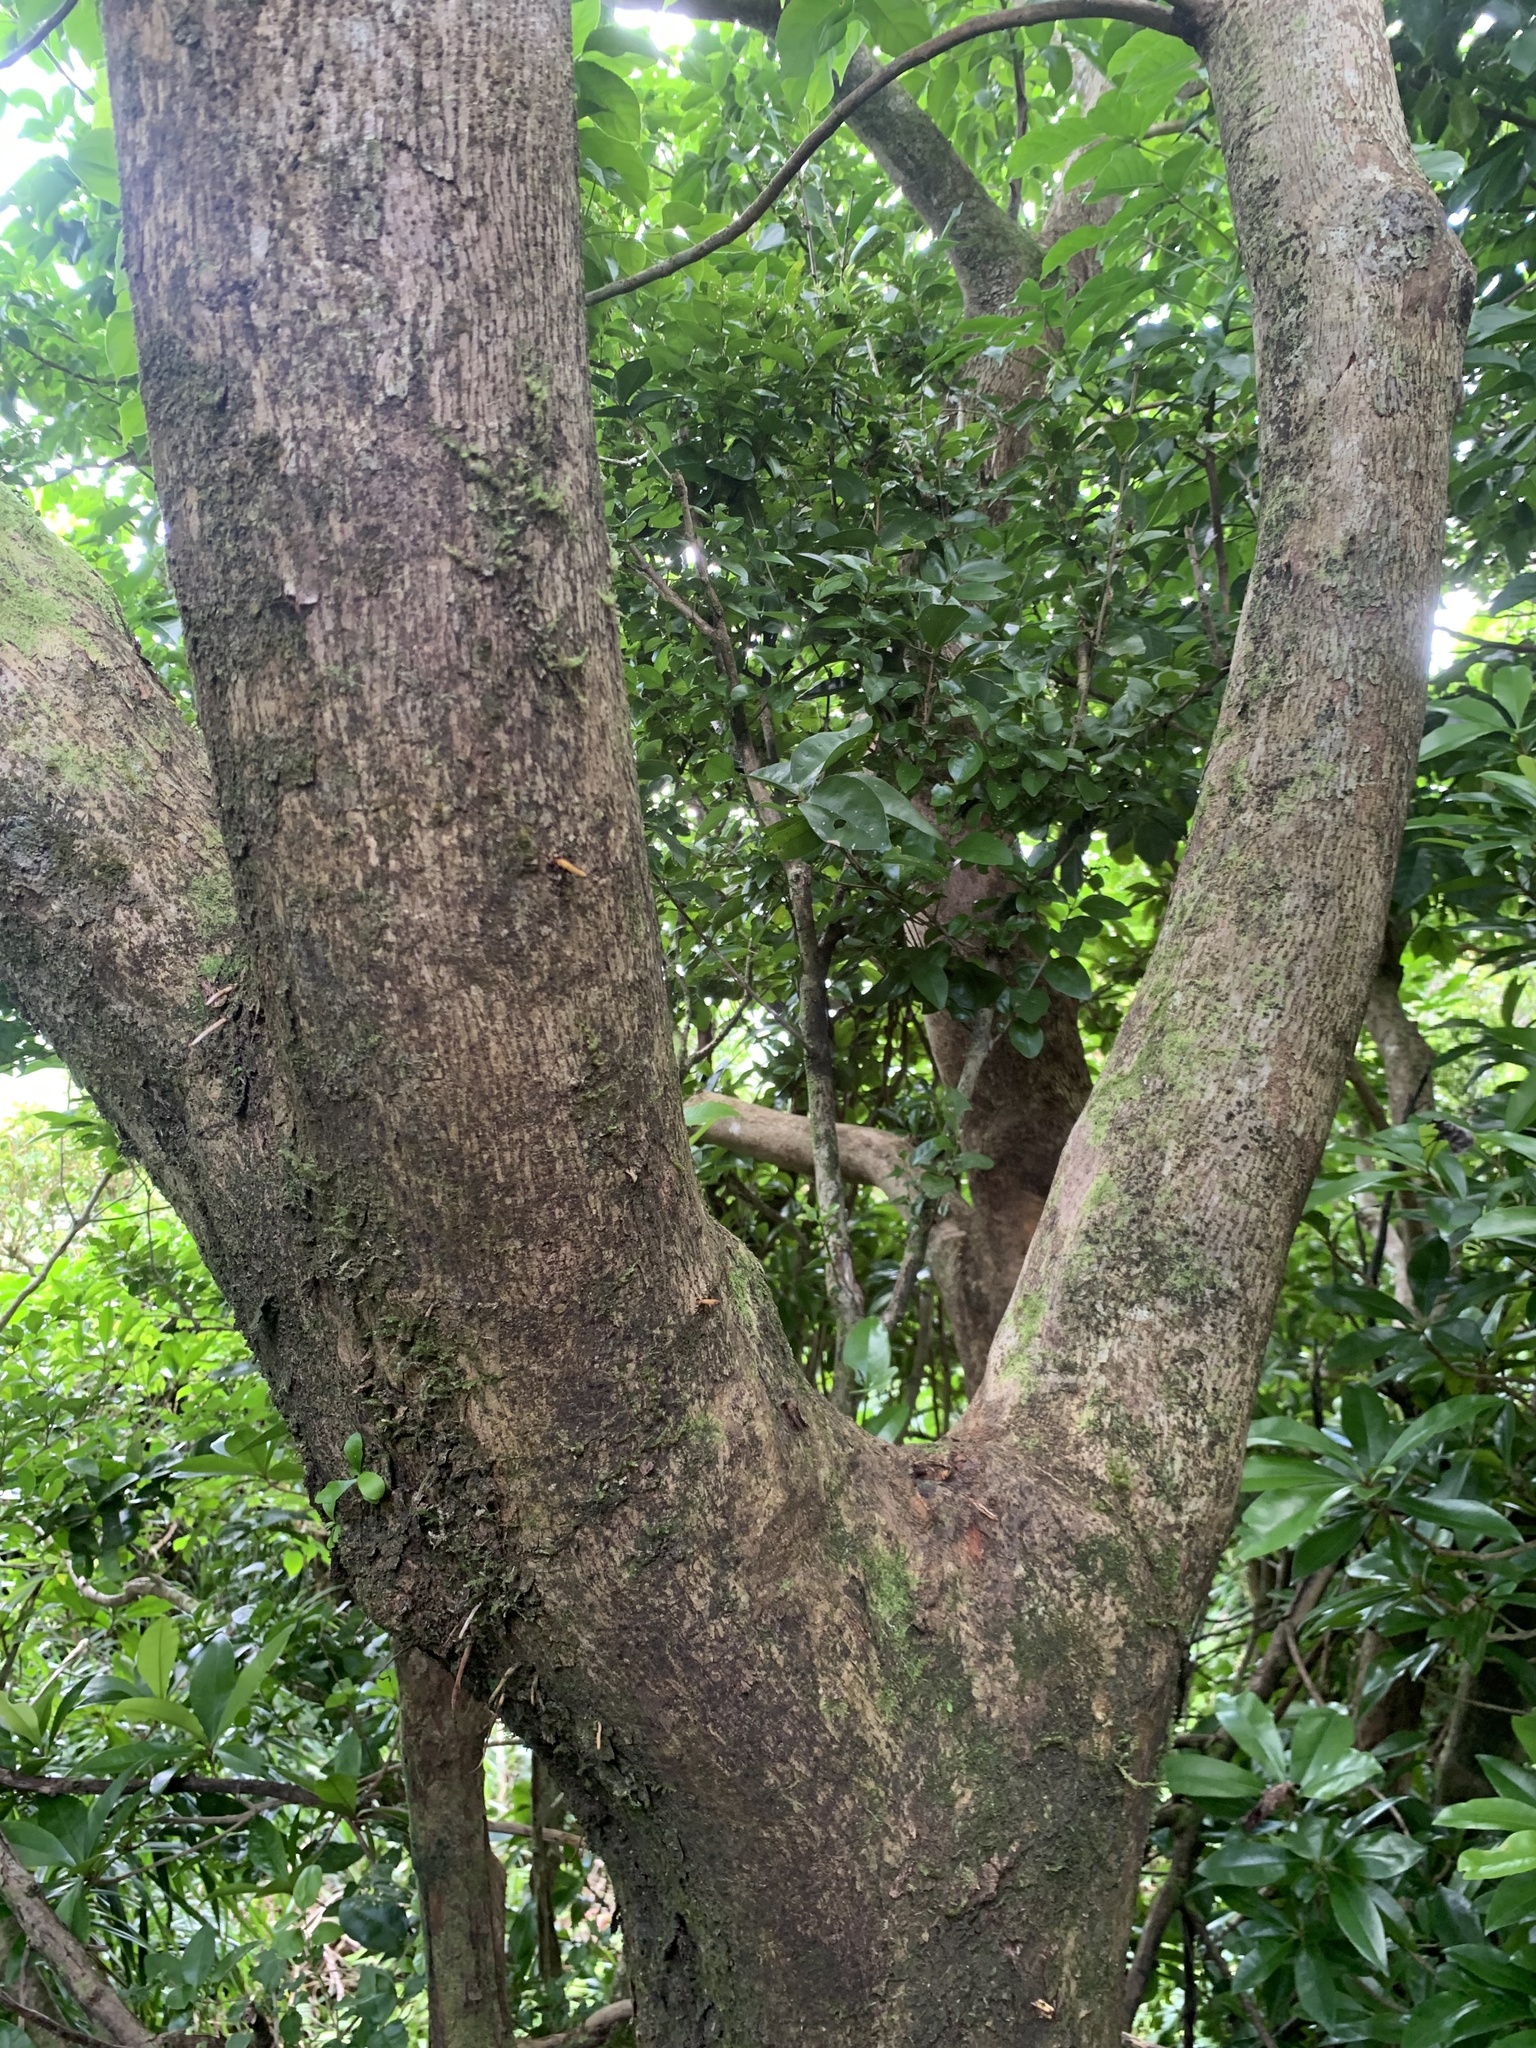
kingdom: Plantae
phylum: Tracheophyta
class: Magnoliopsida
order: Malpighiales
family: Phyllanthaceae
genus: Bischofia
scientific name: Bischofia javanica
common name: Javanese bishopwood
